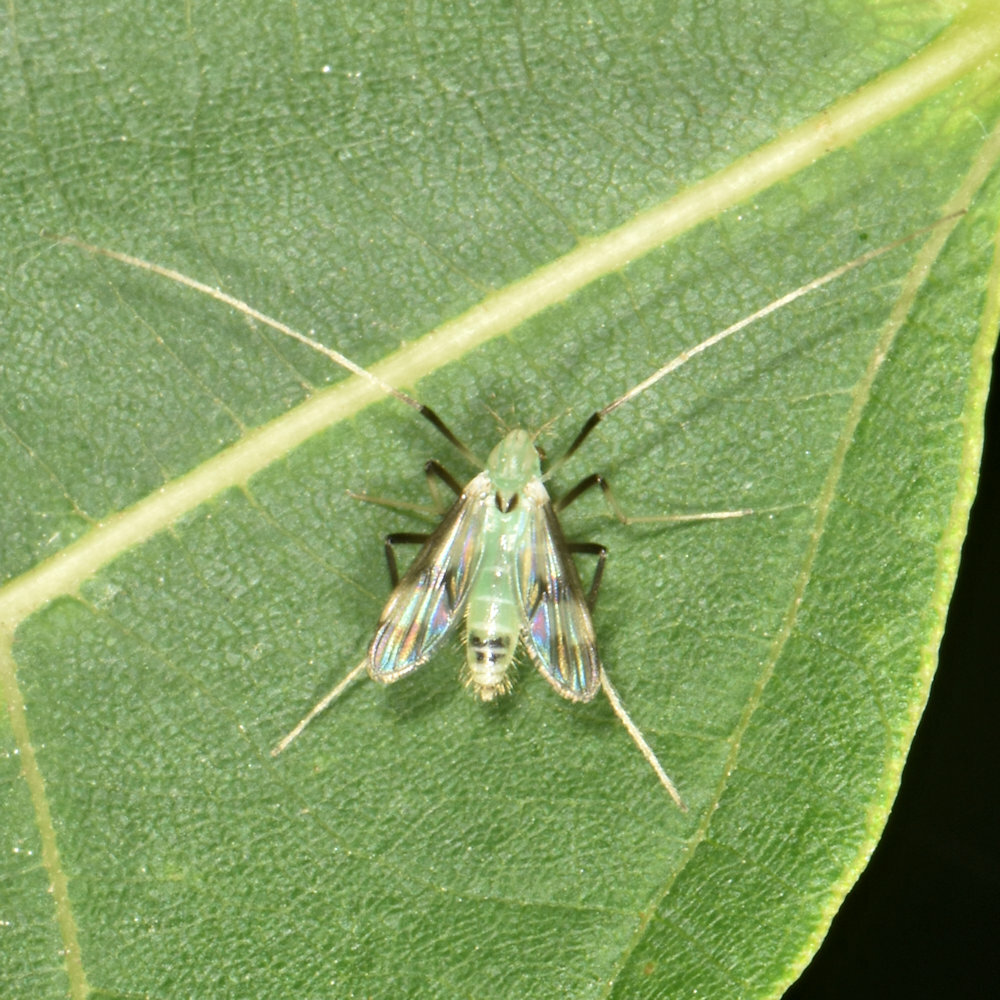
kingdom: Animalia
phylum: Arthropoda
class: Insecta
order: Diptera
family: Chironomidae
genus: Stenochironomus
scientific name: Stenochironomus hilaris
